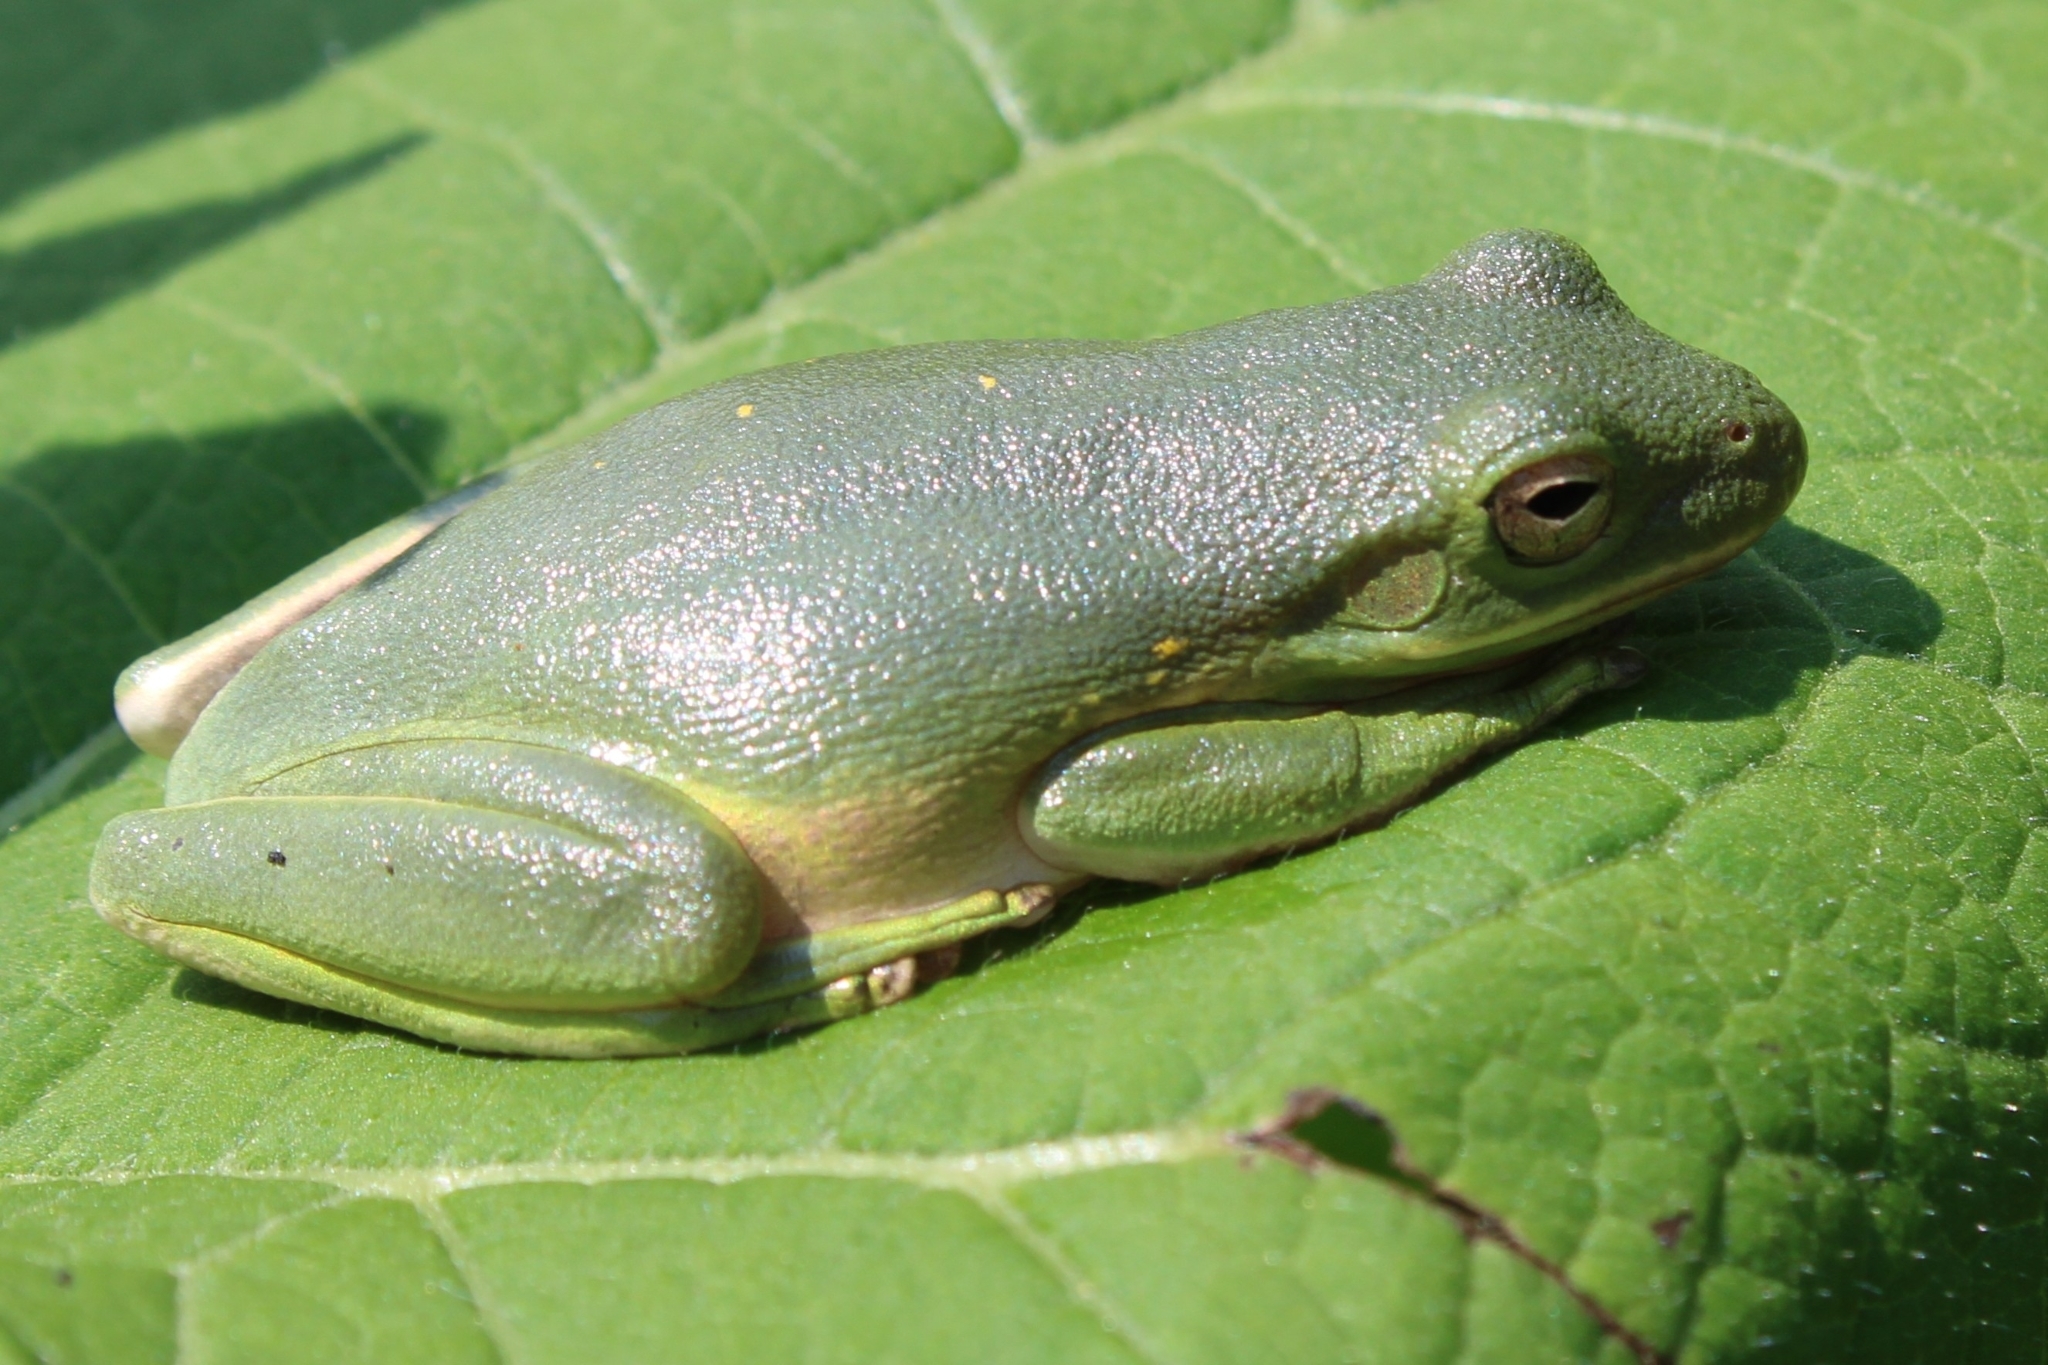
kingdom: Animalia
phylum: Chordata
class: Amphibia
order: Anura
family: Hylidae
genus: Dryophytes
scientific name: Dryophytes cinereus
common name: Green treefrog
